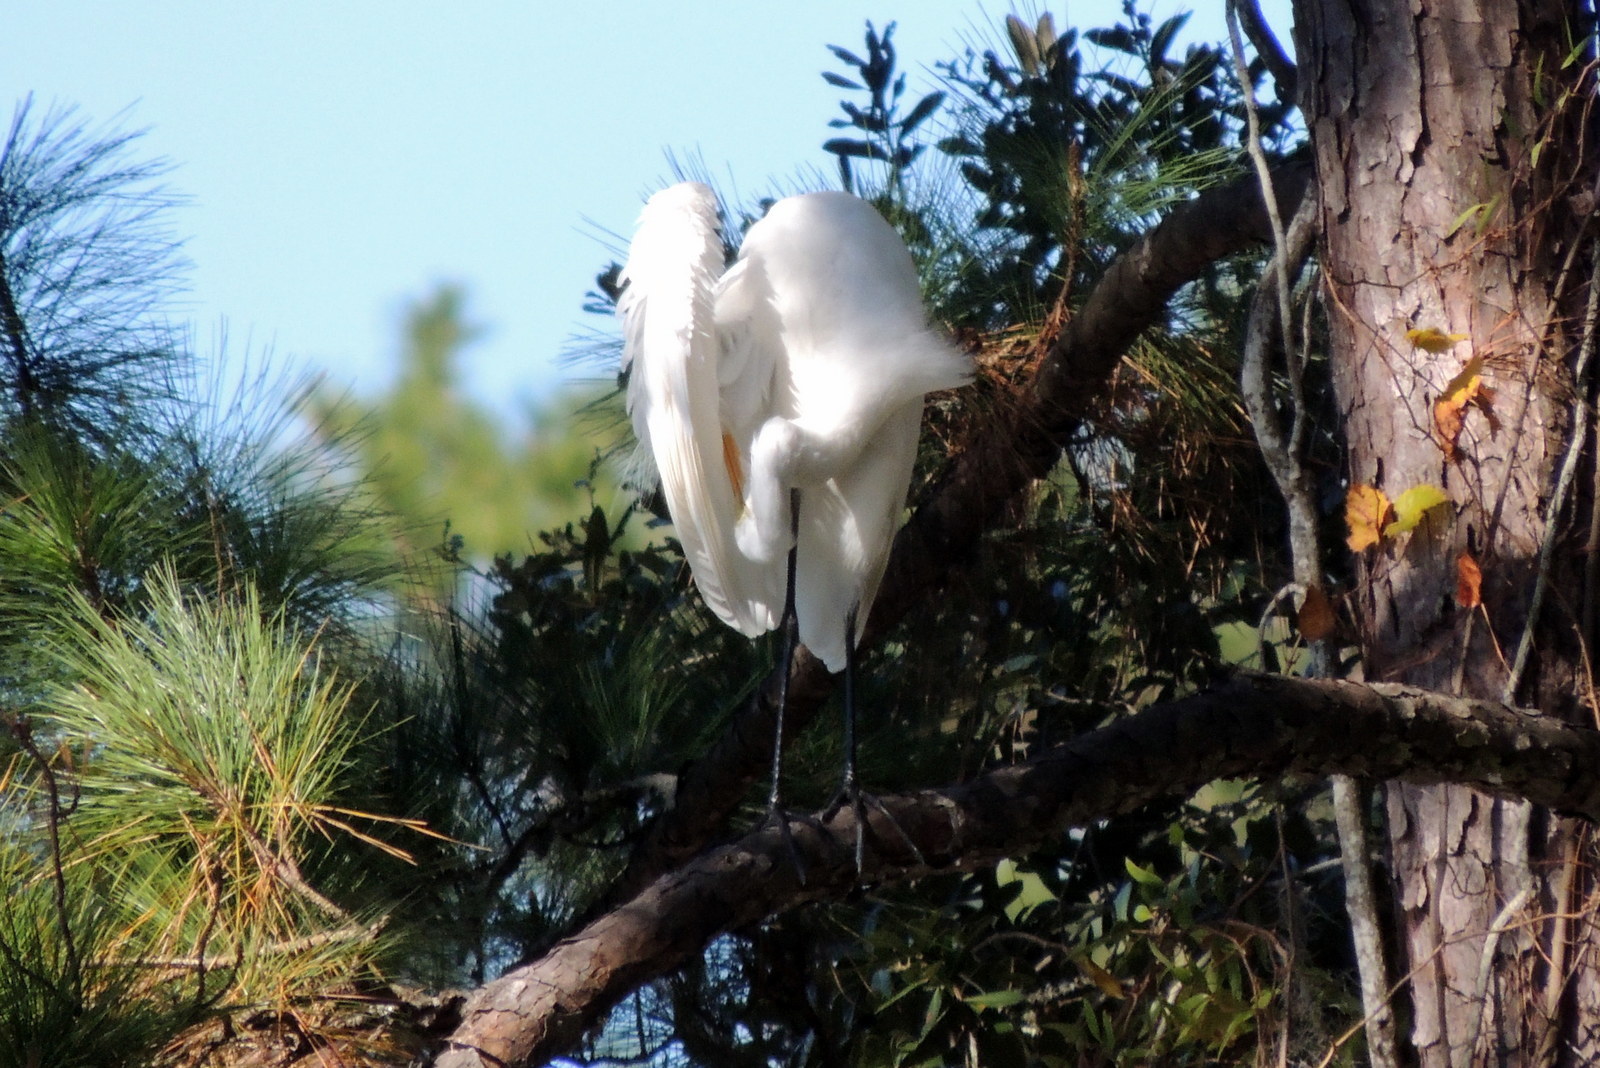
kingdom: Animalia
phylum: Chordata
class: Aves
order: Pelecaniformes
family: Ardeidae
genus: Ardea
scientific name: Ardea alba
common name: Great egret
